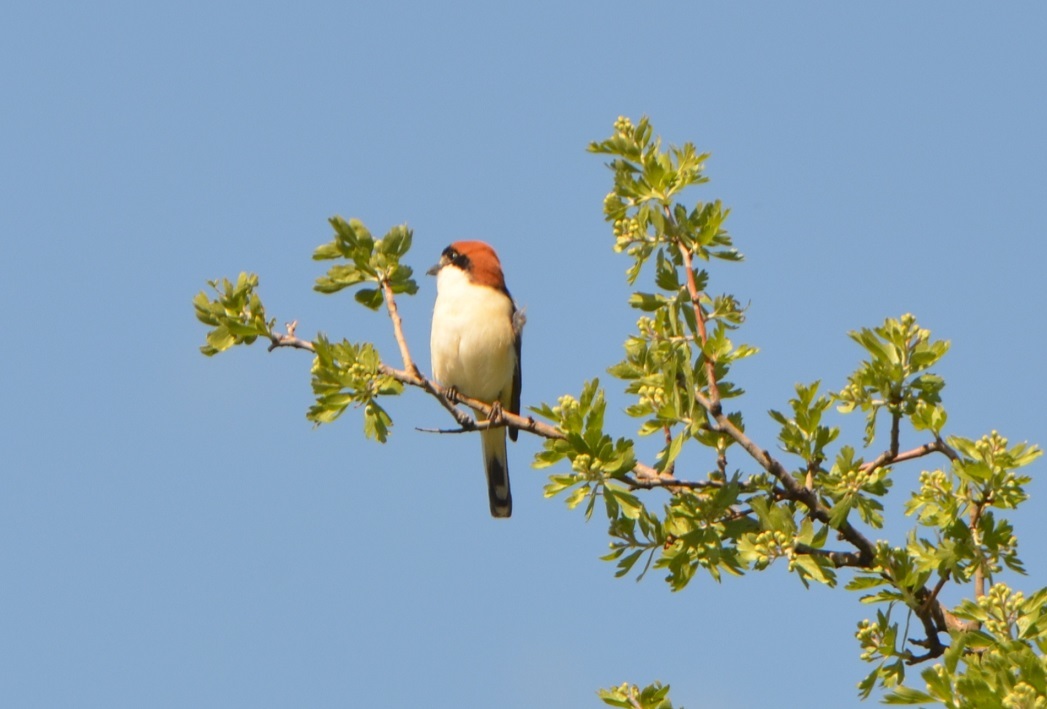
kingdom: Animalia
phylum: Chordata
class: Aves
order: Passeriformes
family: Laniidae
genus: Lanius
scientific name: Lanius senator
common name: Woodchat shrike
